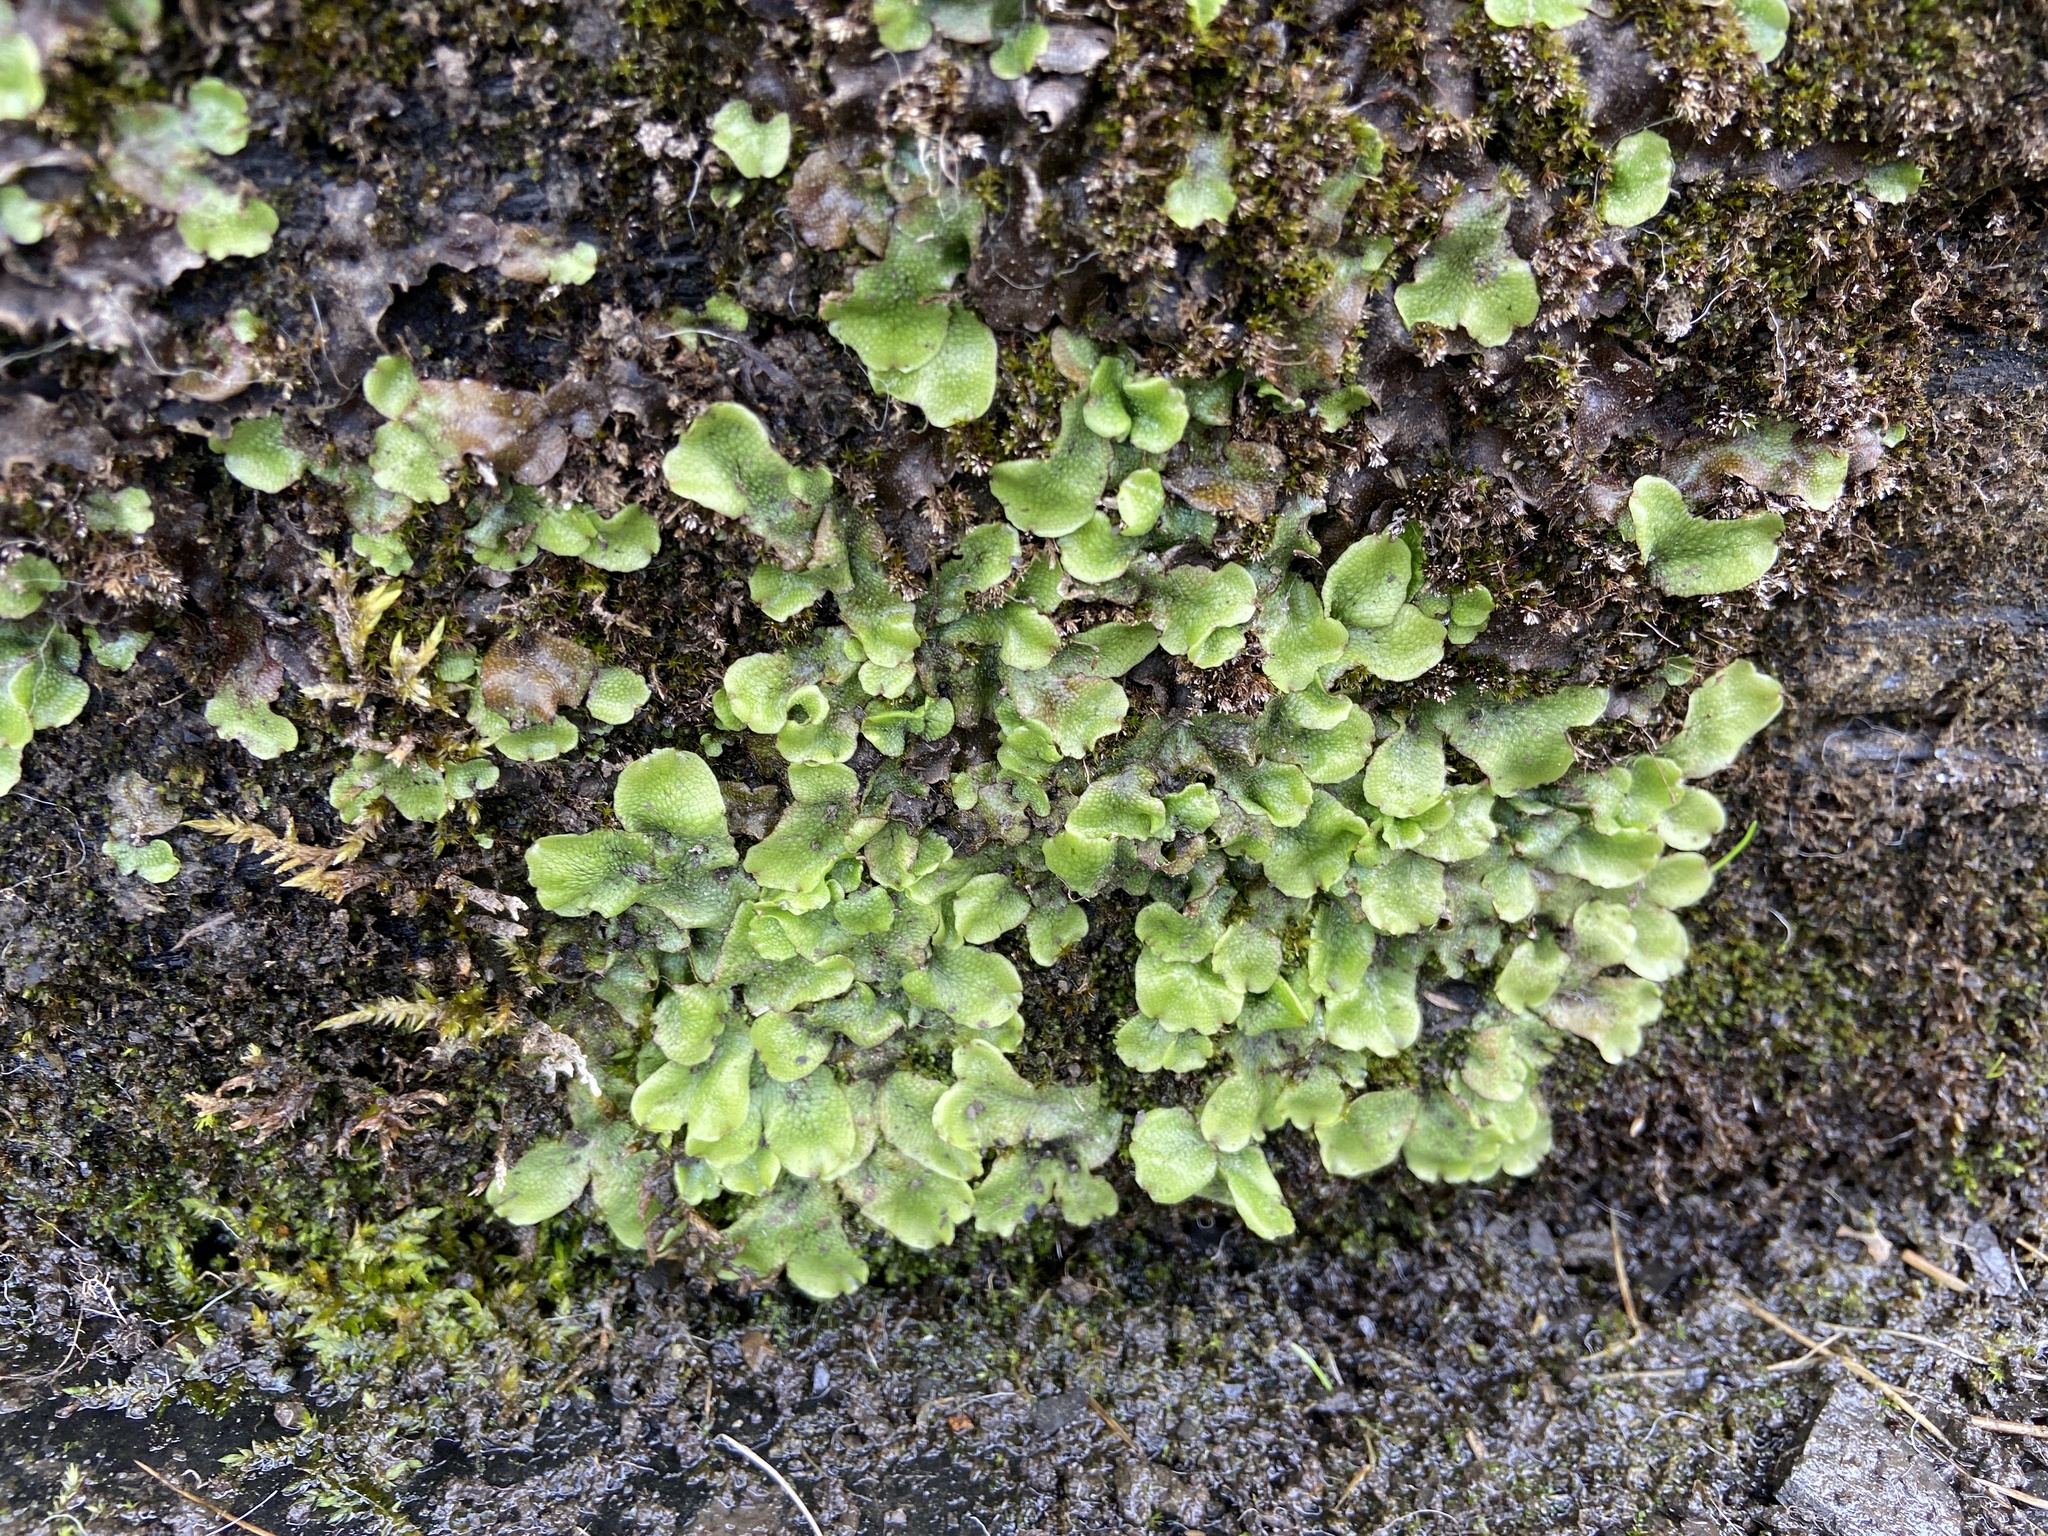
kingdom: Plantae
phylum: Marchantiophyta
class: Marchantiopsida
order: Marchantiales
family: Conocephalaceae
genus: Conocephalum
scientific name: Conocephalum conicum
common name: Great scented liverwort
